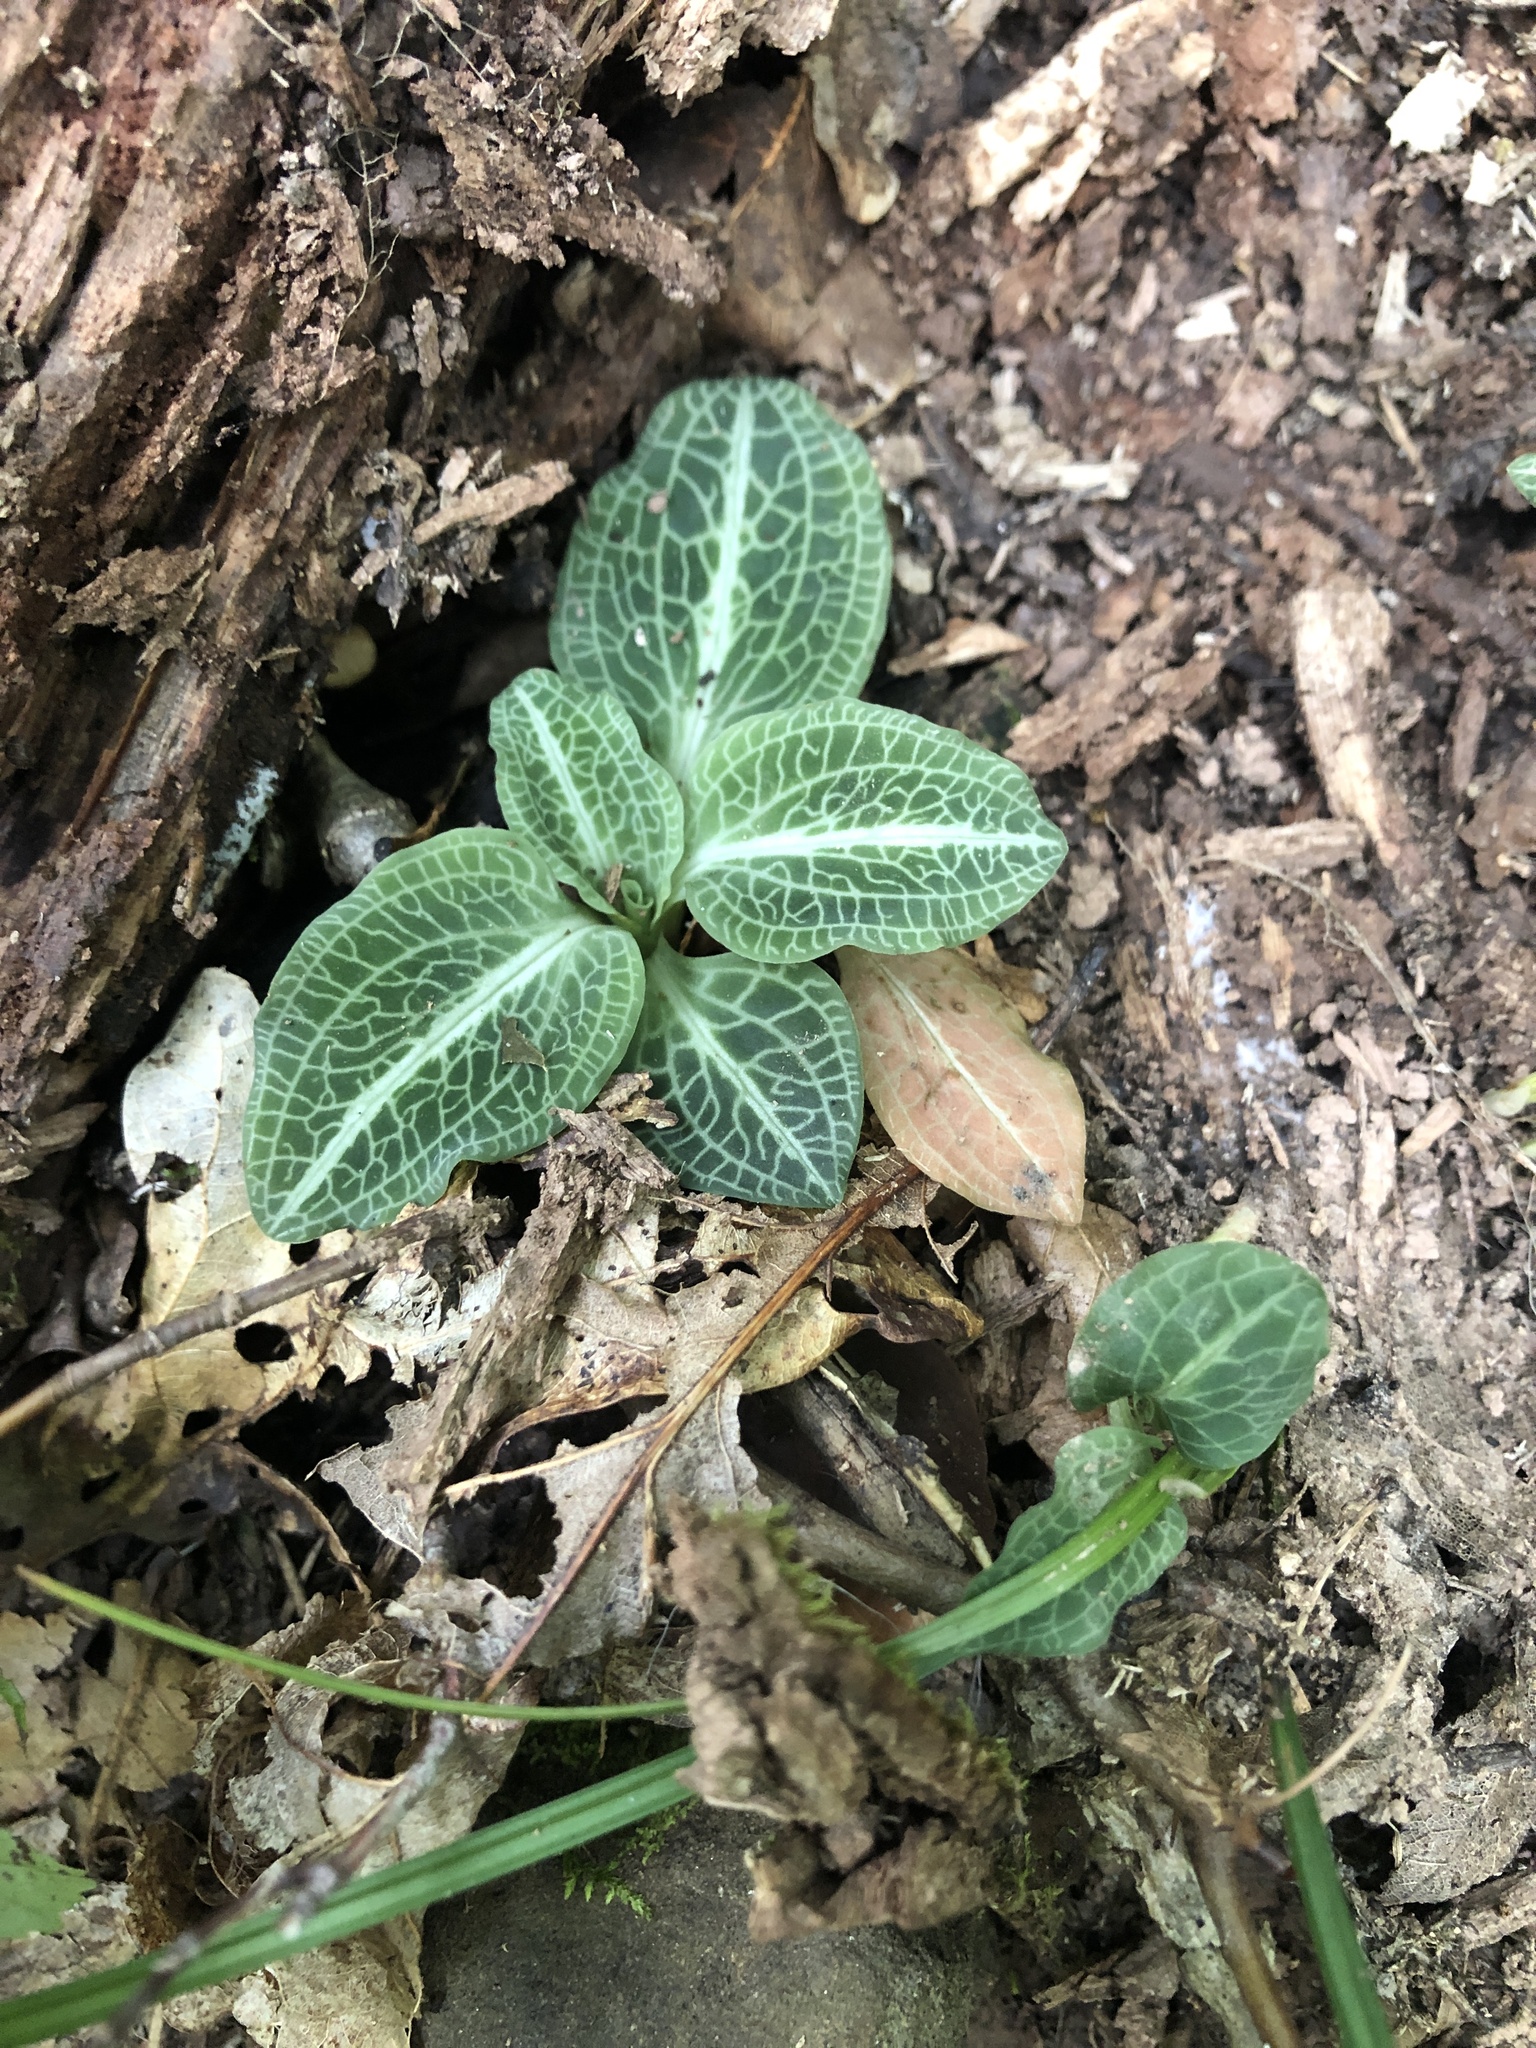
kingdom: Plantae
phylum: Tracheophyta
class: Liliopsida
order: Asparagales
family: Orchidaceae
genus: Goodyera
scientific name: Goodyera pubescens
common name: Downy rattlesnake-plantain
